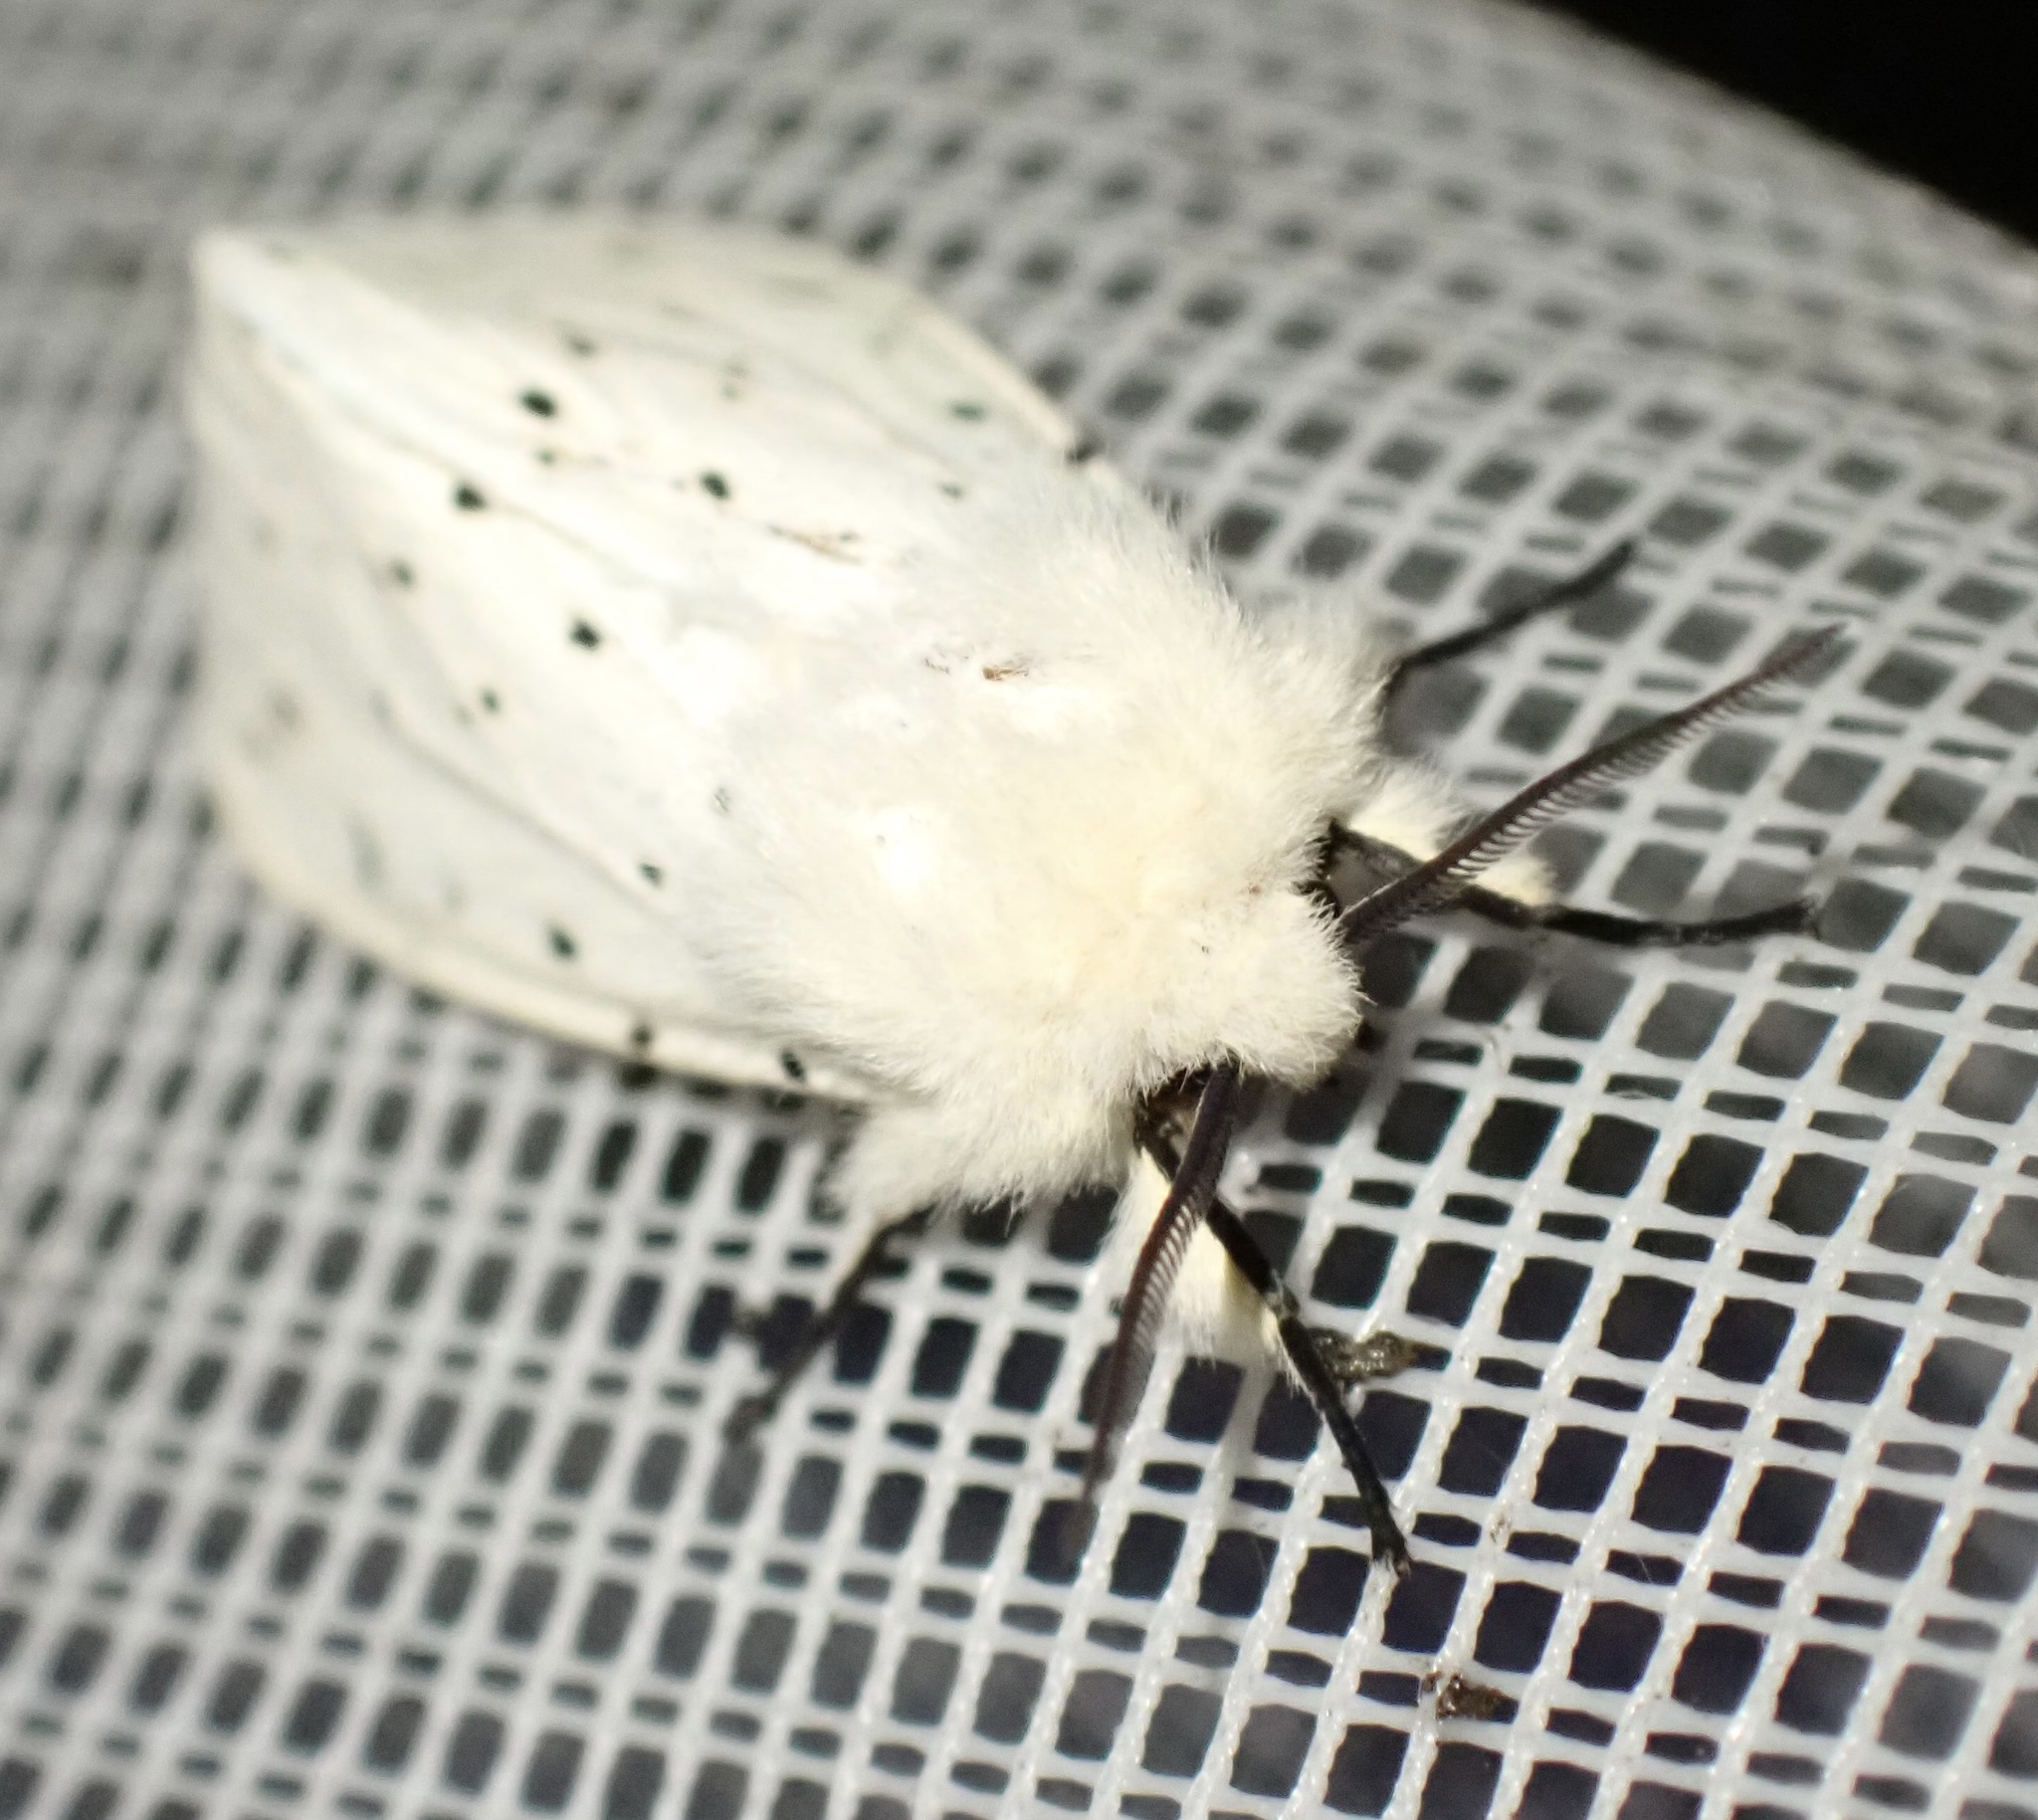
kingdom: Animalia
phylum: Arthropoda
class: Insecta
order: Lepidoptera
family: Erebidae
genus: Spilosoma
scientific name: Spilosoma lubricipeda
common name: White ermine
